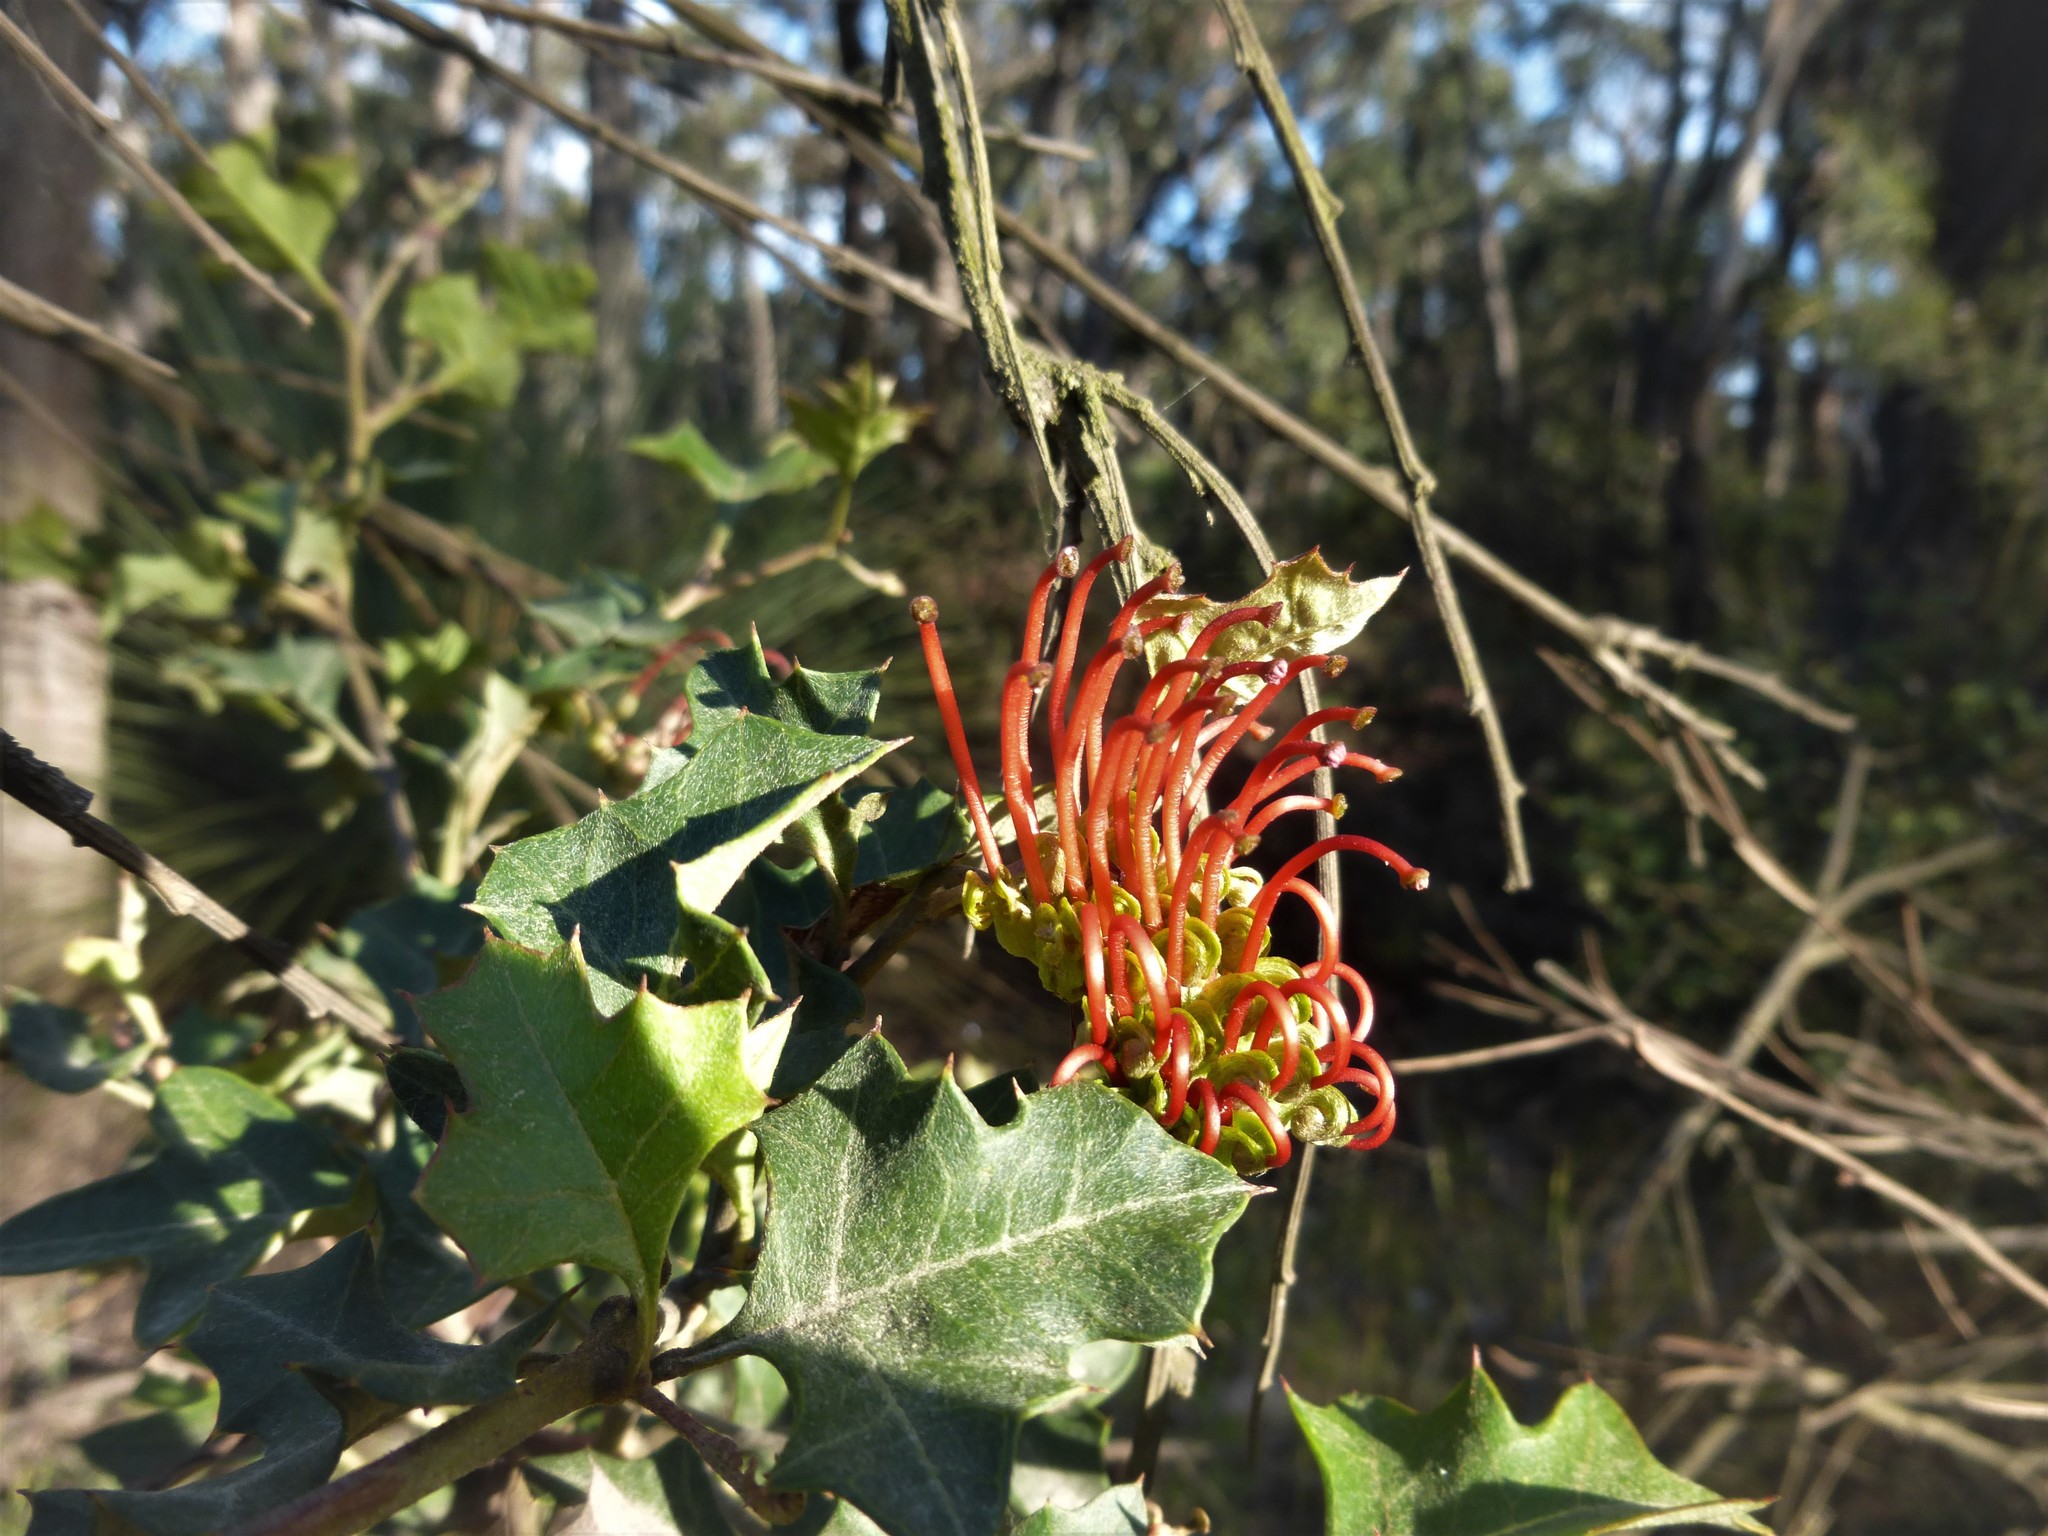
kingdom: Plantae
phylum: Tracheophyta
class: Magnoliopsida
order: Proteales
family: Proteaceae
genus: Grevillea
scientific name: Grevillea steiglitziana
